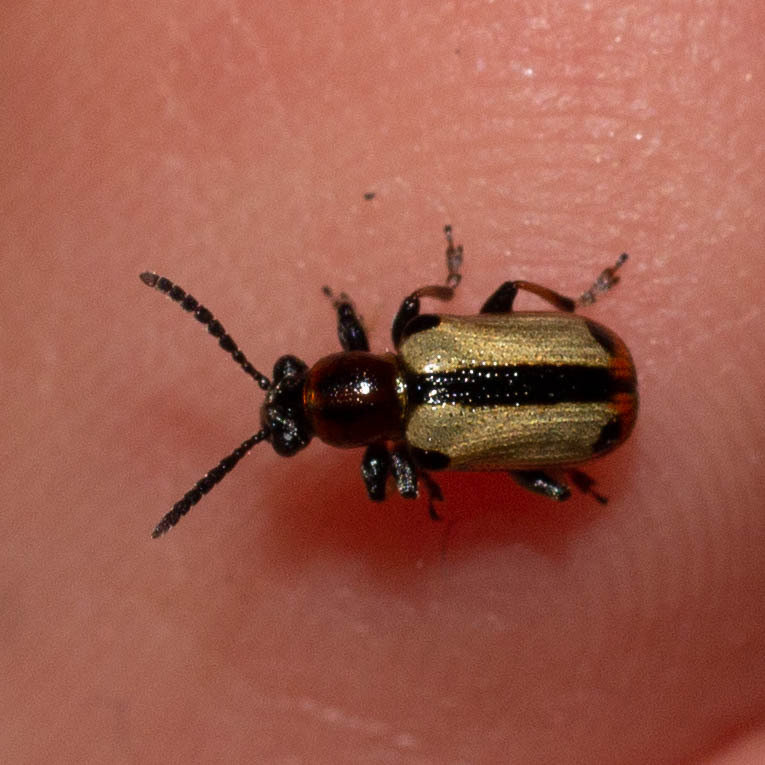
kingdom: Animalia
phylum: Arthropoda
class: Insecta
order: Coleoptera
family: Chrysomelidae
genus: Crioceris
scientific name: Crioceris paracenthesis
